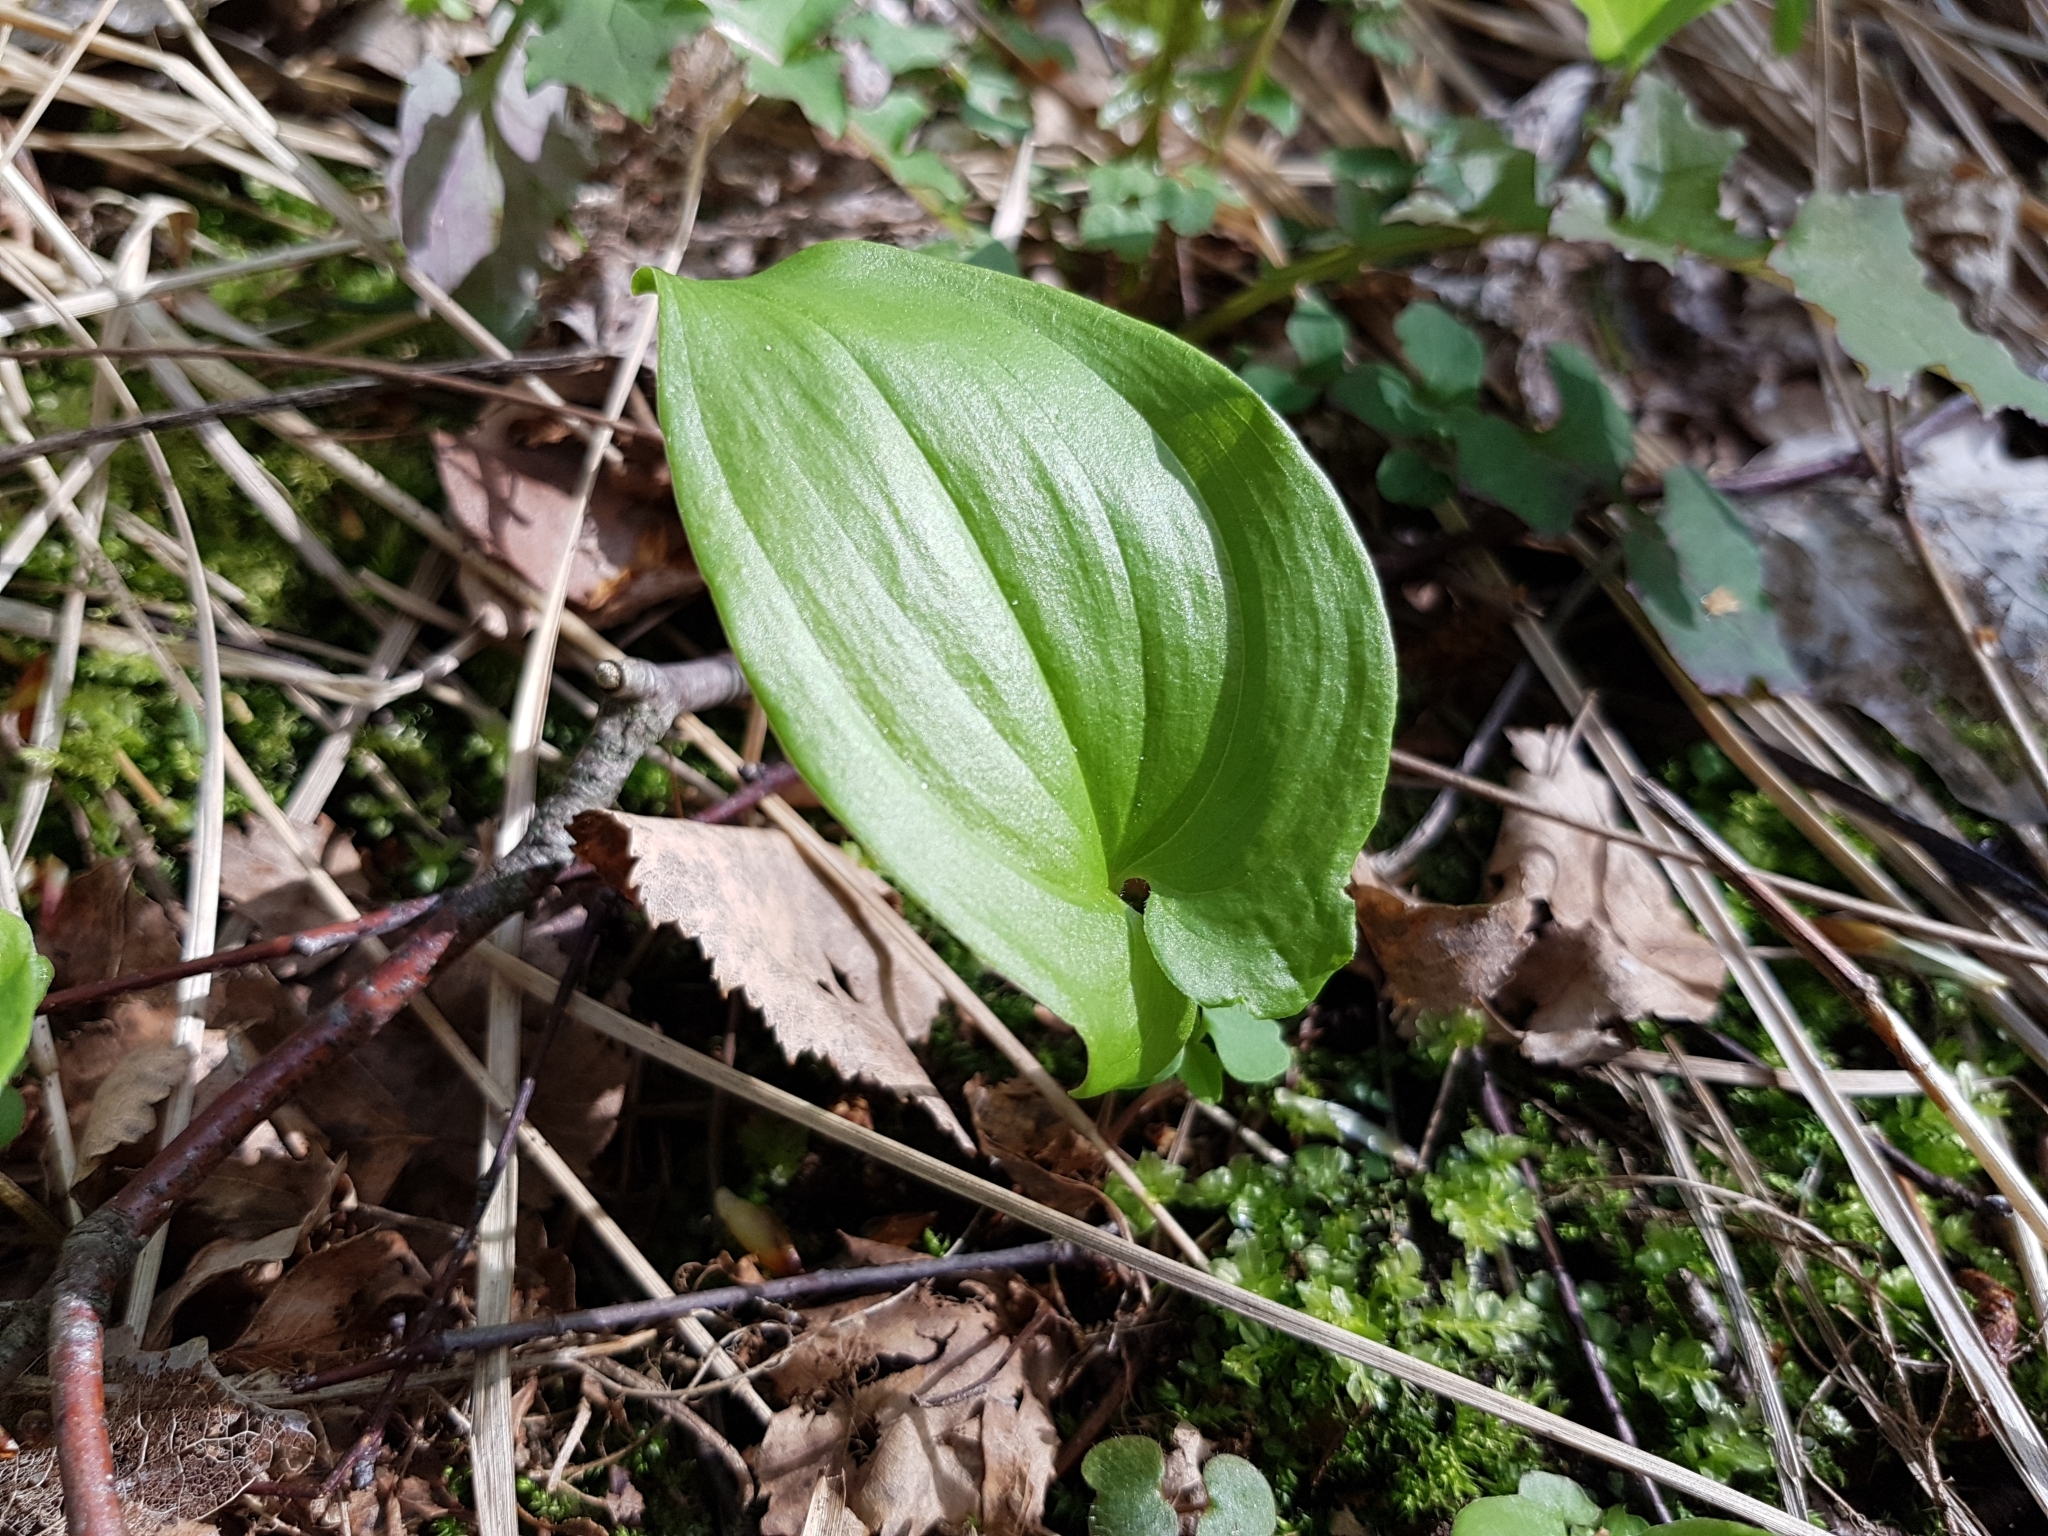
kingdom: Plantae
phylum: Tracheophyta
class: Liliopsida
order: Asparagales
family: Asparagaceae
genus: Maianthemum
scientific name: Maianthemum bifolium
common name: May lily
